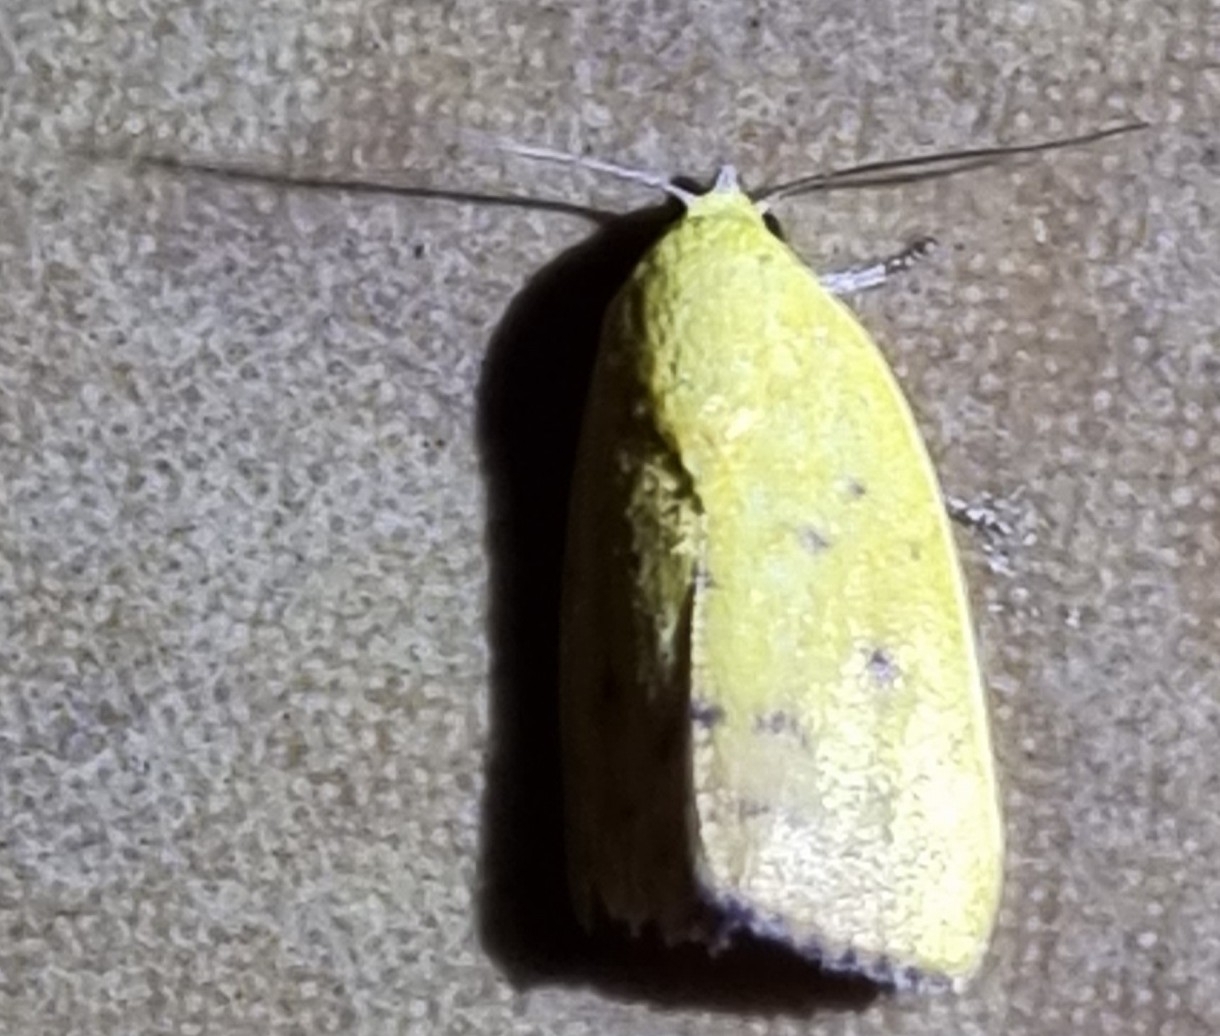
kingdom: Animalia
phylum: Arthropoda
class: Insecta
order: Lepidoptera
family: Nolidae
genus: Earias
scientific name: Earias luteolaria
